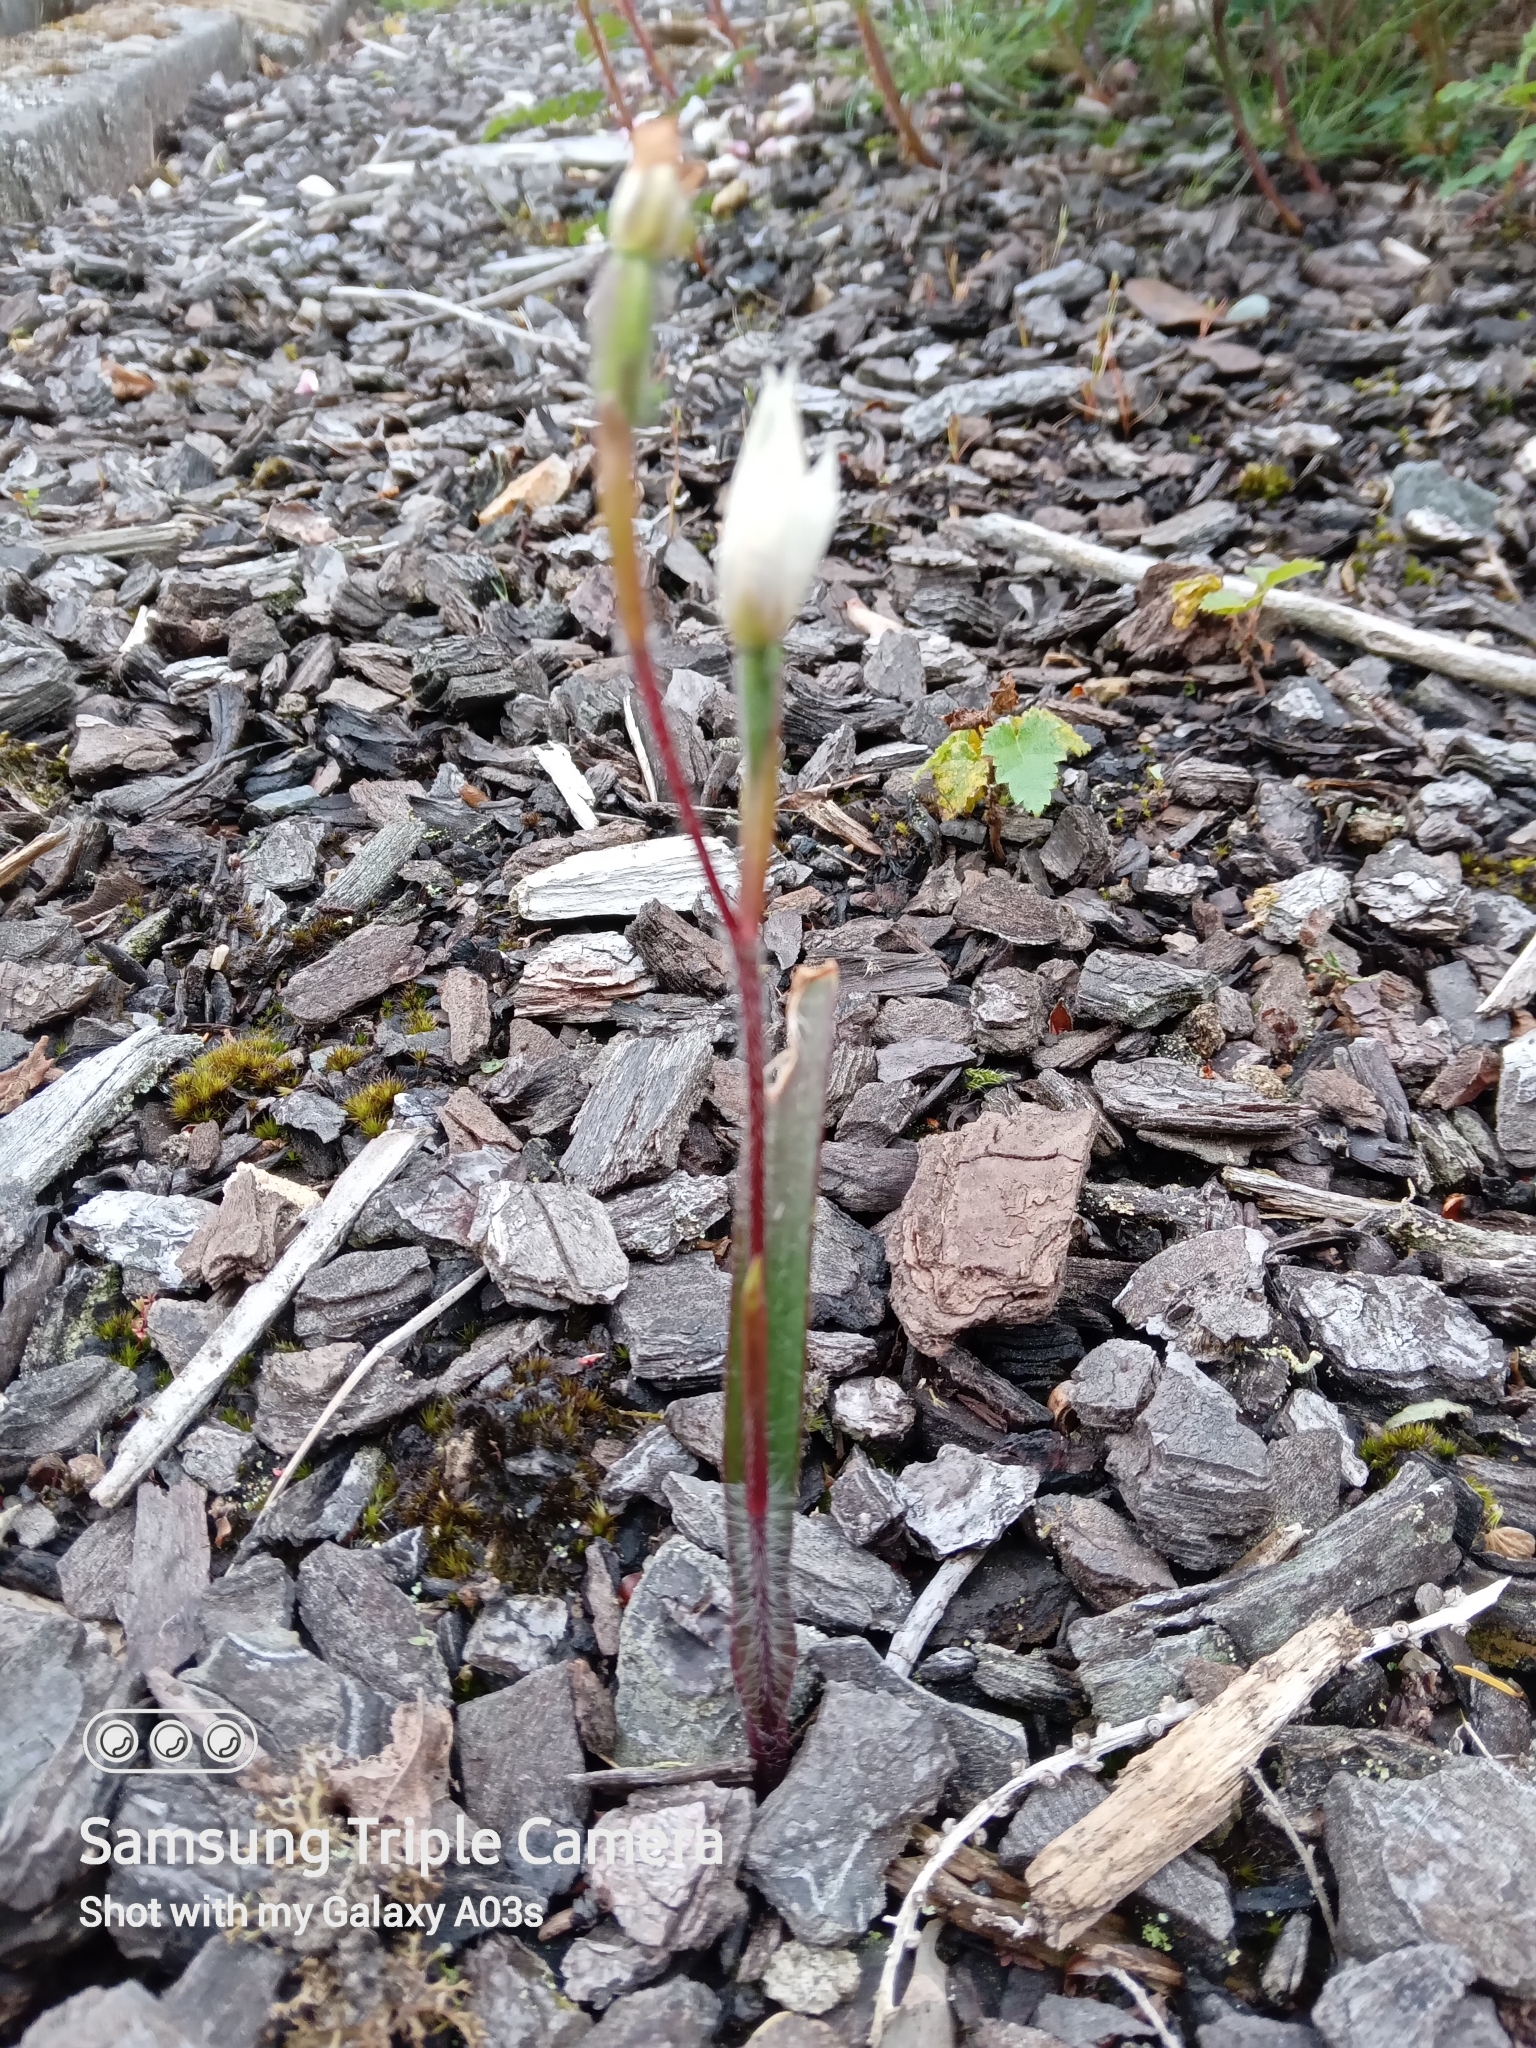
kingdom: Plantae
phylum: Tracheophyta
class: Liliopsida
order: Asparagales
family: Orchidaceae
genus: Caladenia
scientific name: Caladenia lyallii
